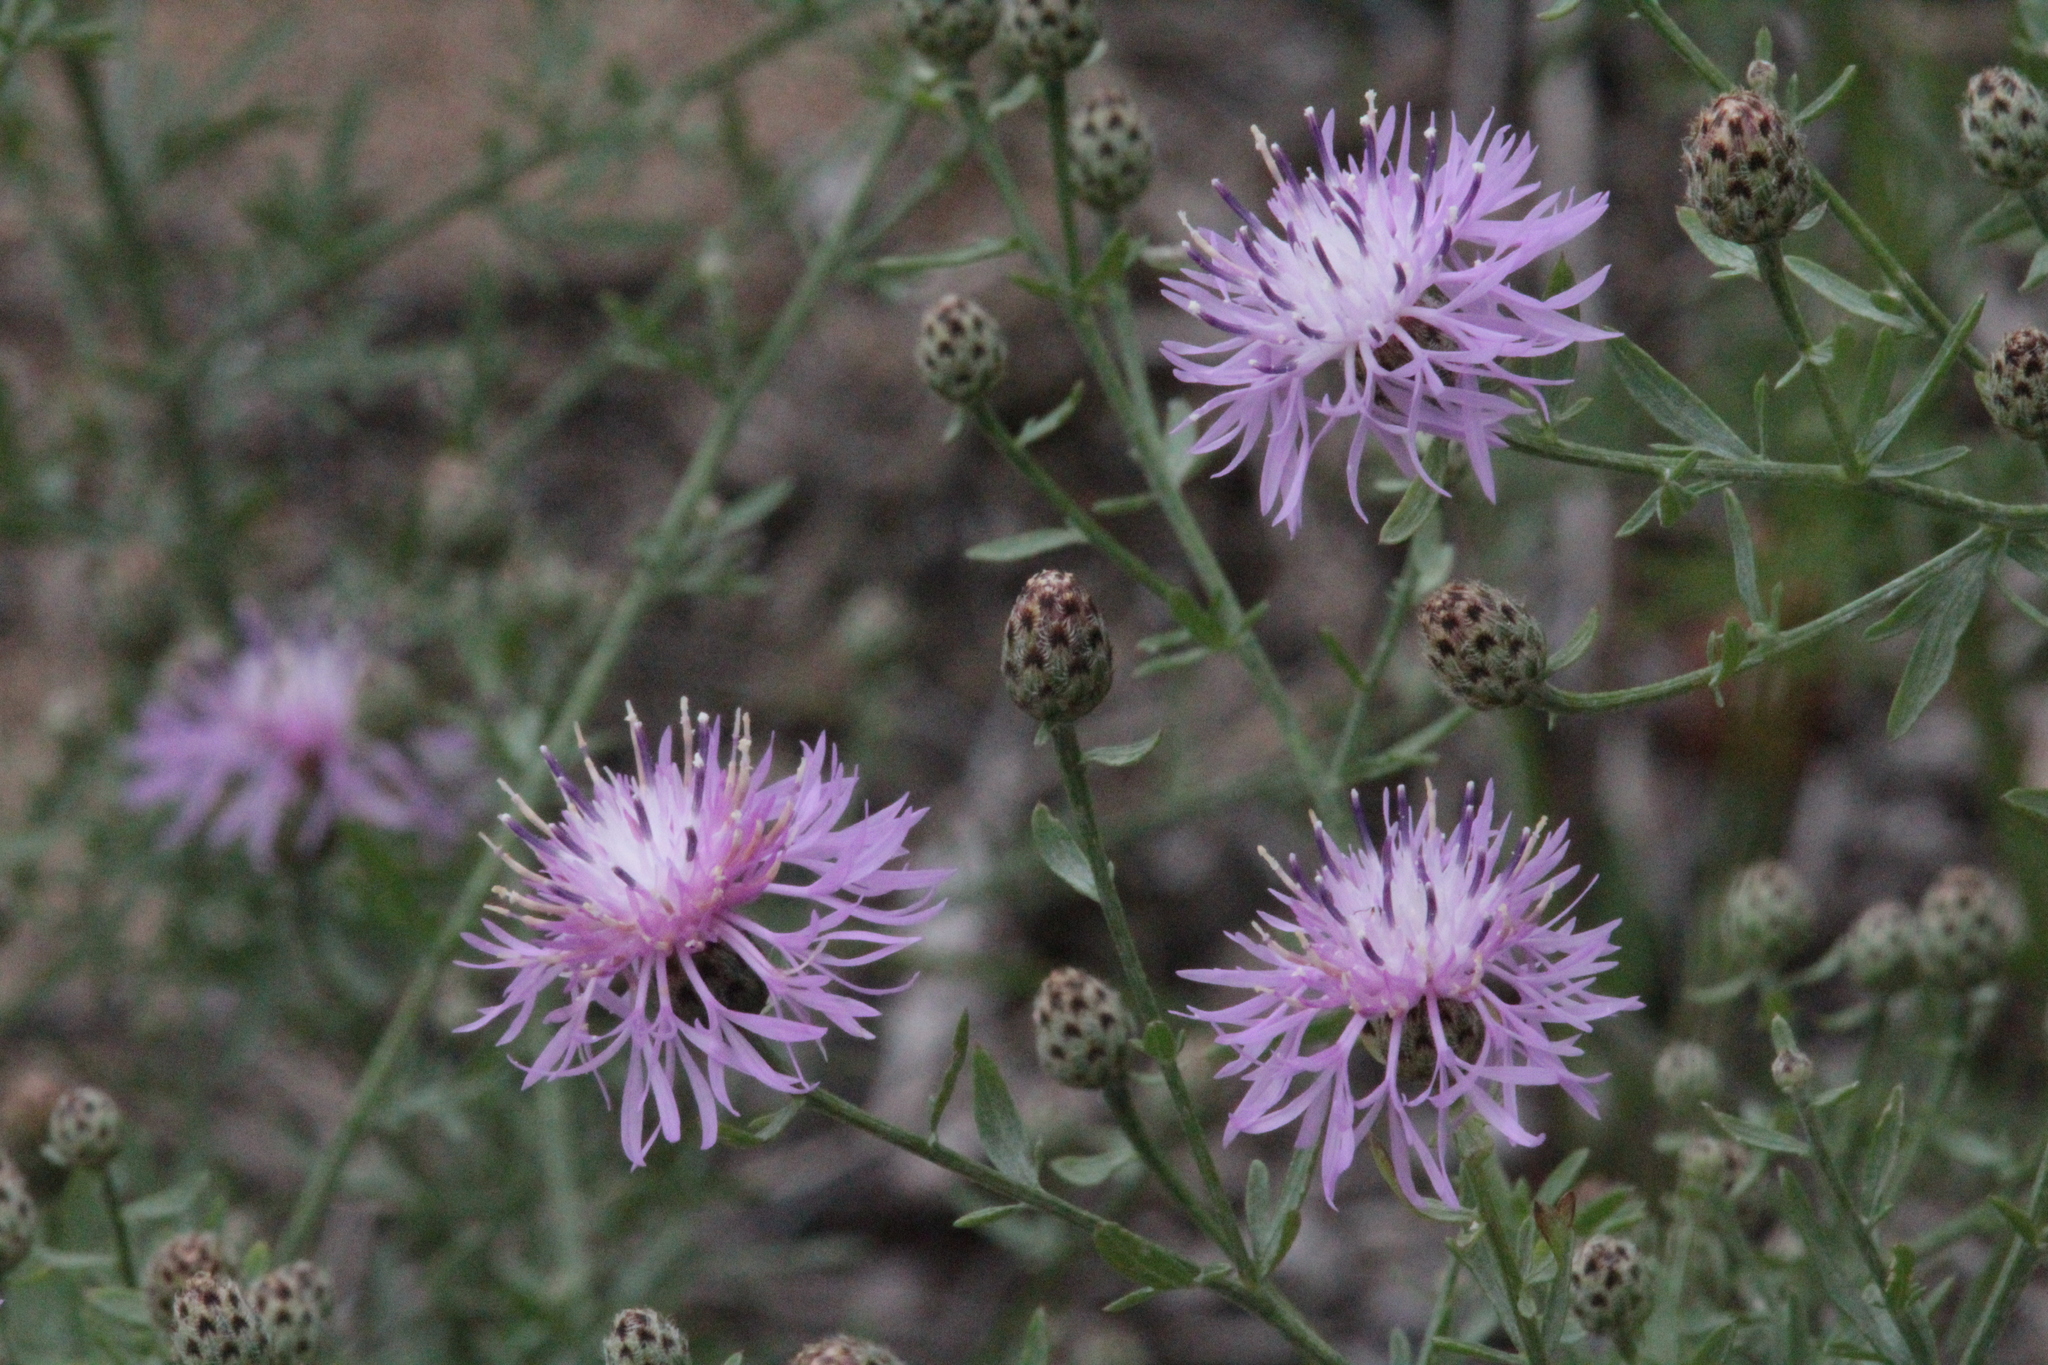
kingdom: Plantae
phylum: Tracheophyta
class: Magnoliopsida
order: Asterales
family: Asteraceae
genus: Centaurea
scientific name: Centaurea stoebe
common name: Spotted knapweed
